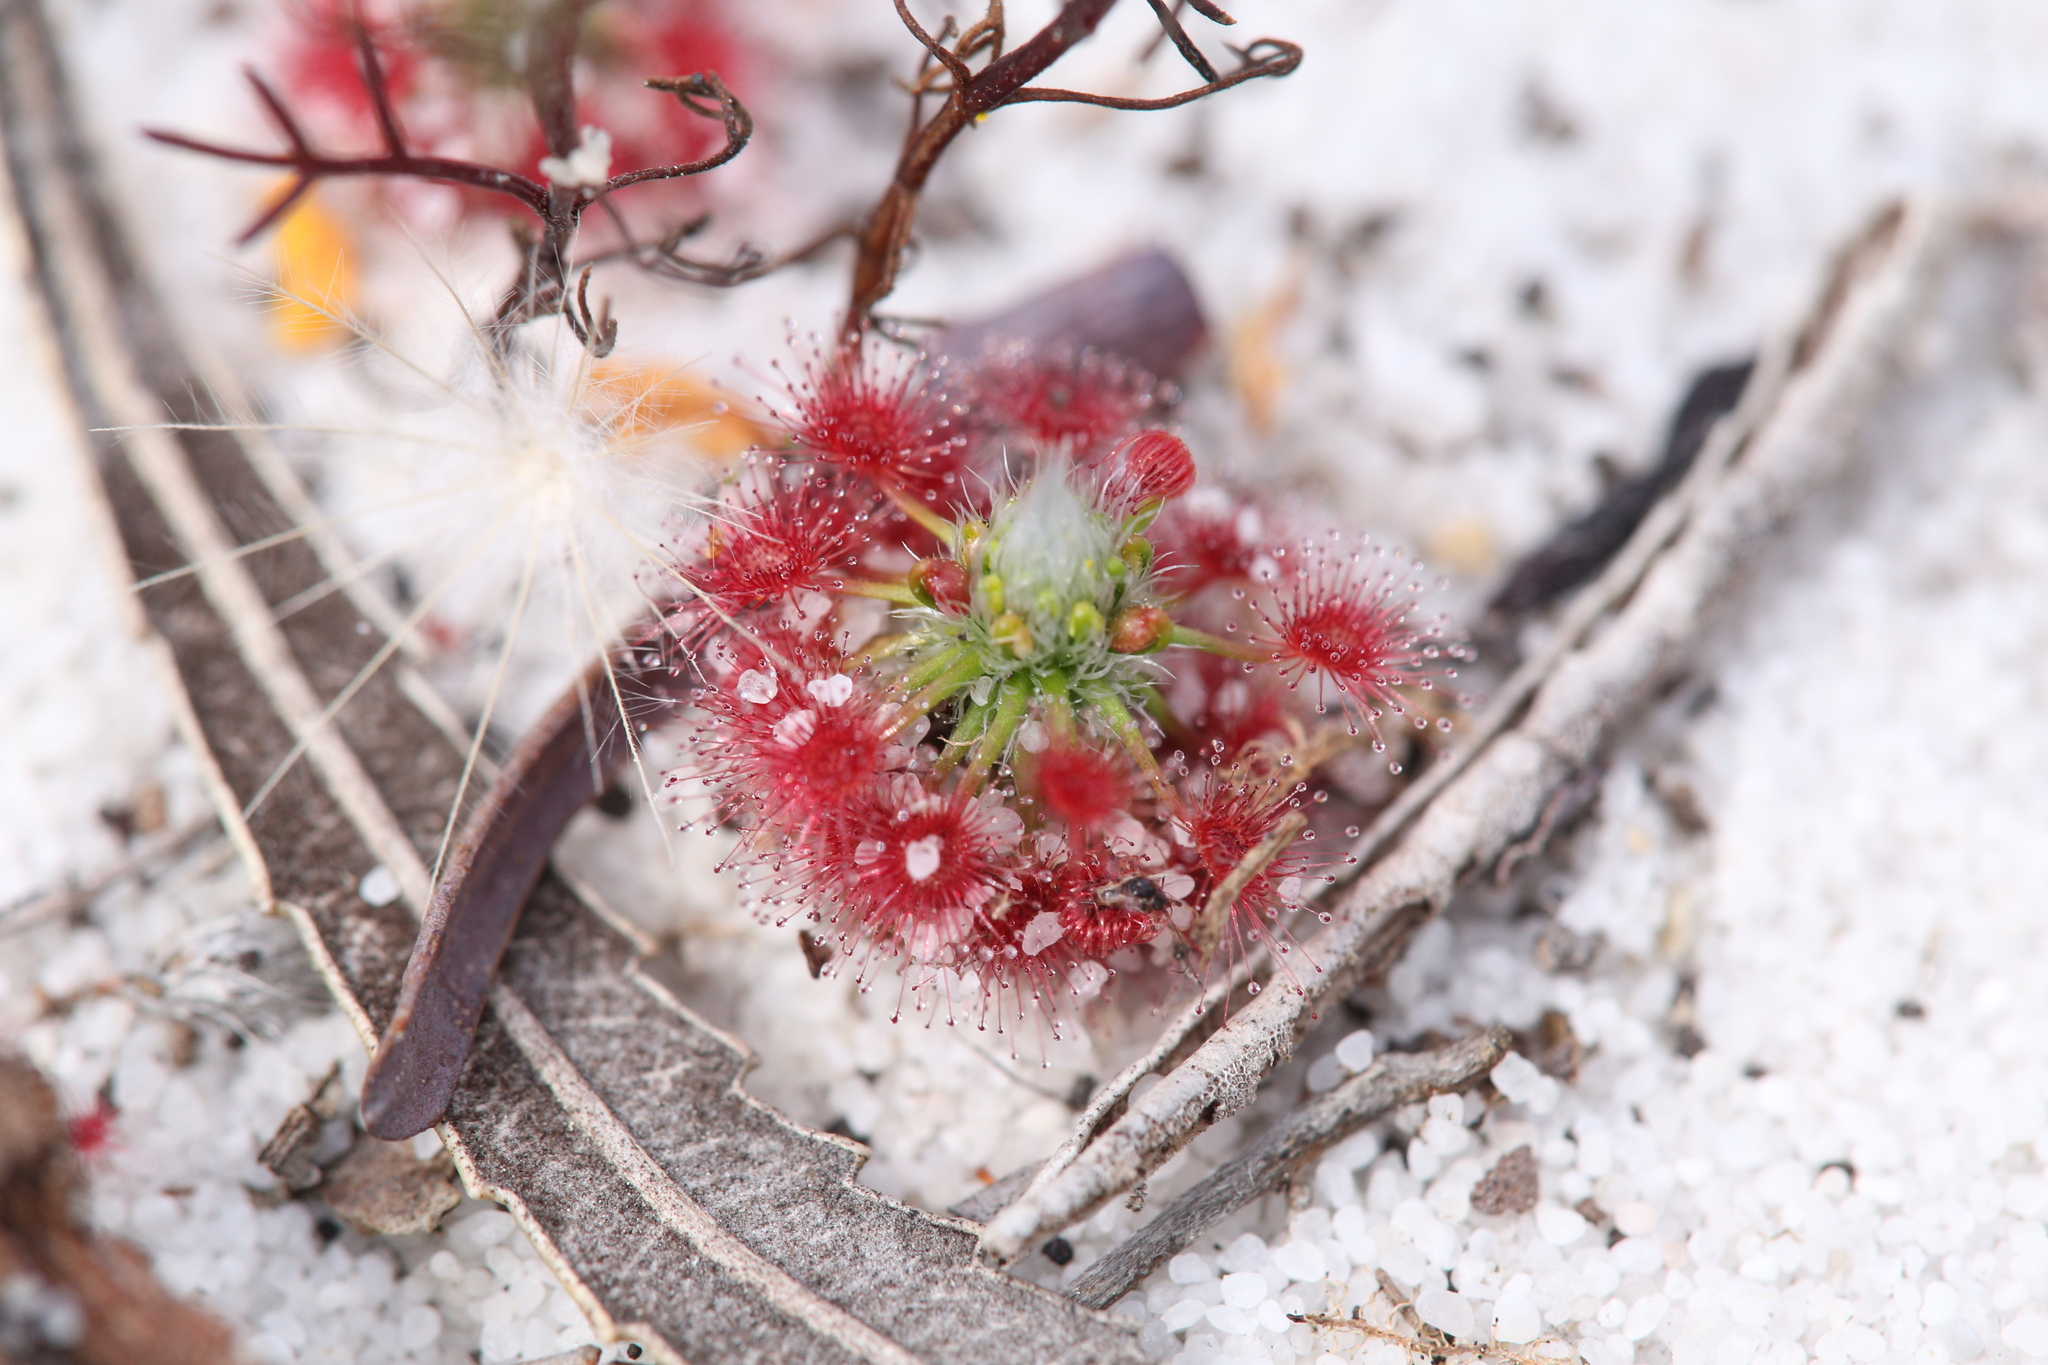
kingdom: Plantae
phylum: Tracheophyta
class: Magnoliopsida
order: Caryophyllales
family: Droseraceae
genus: Drosera
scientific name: Drosera paleacea
